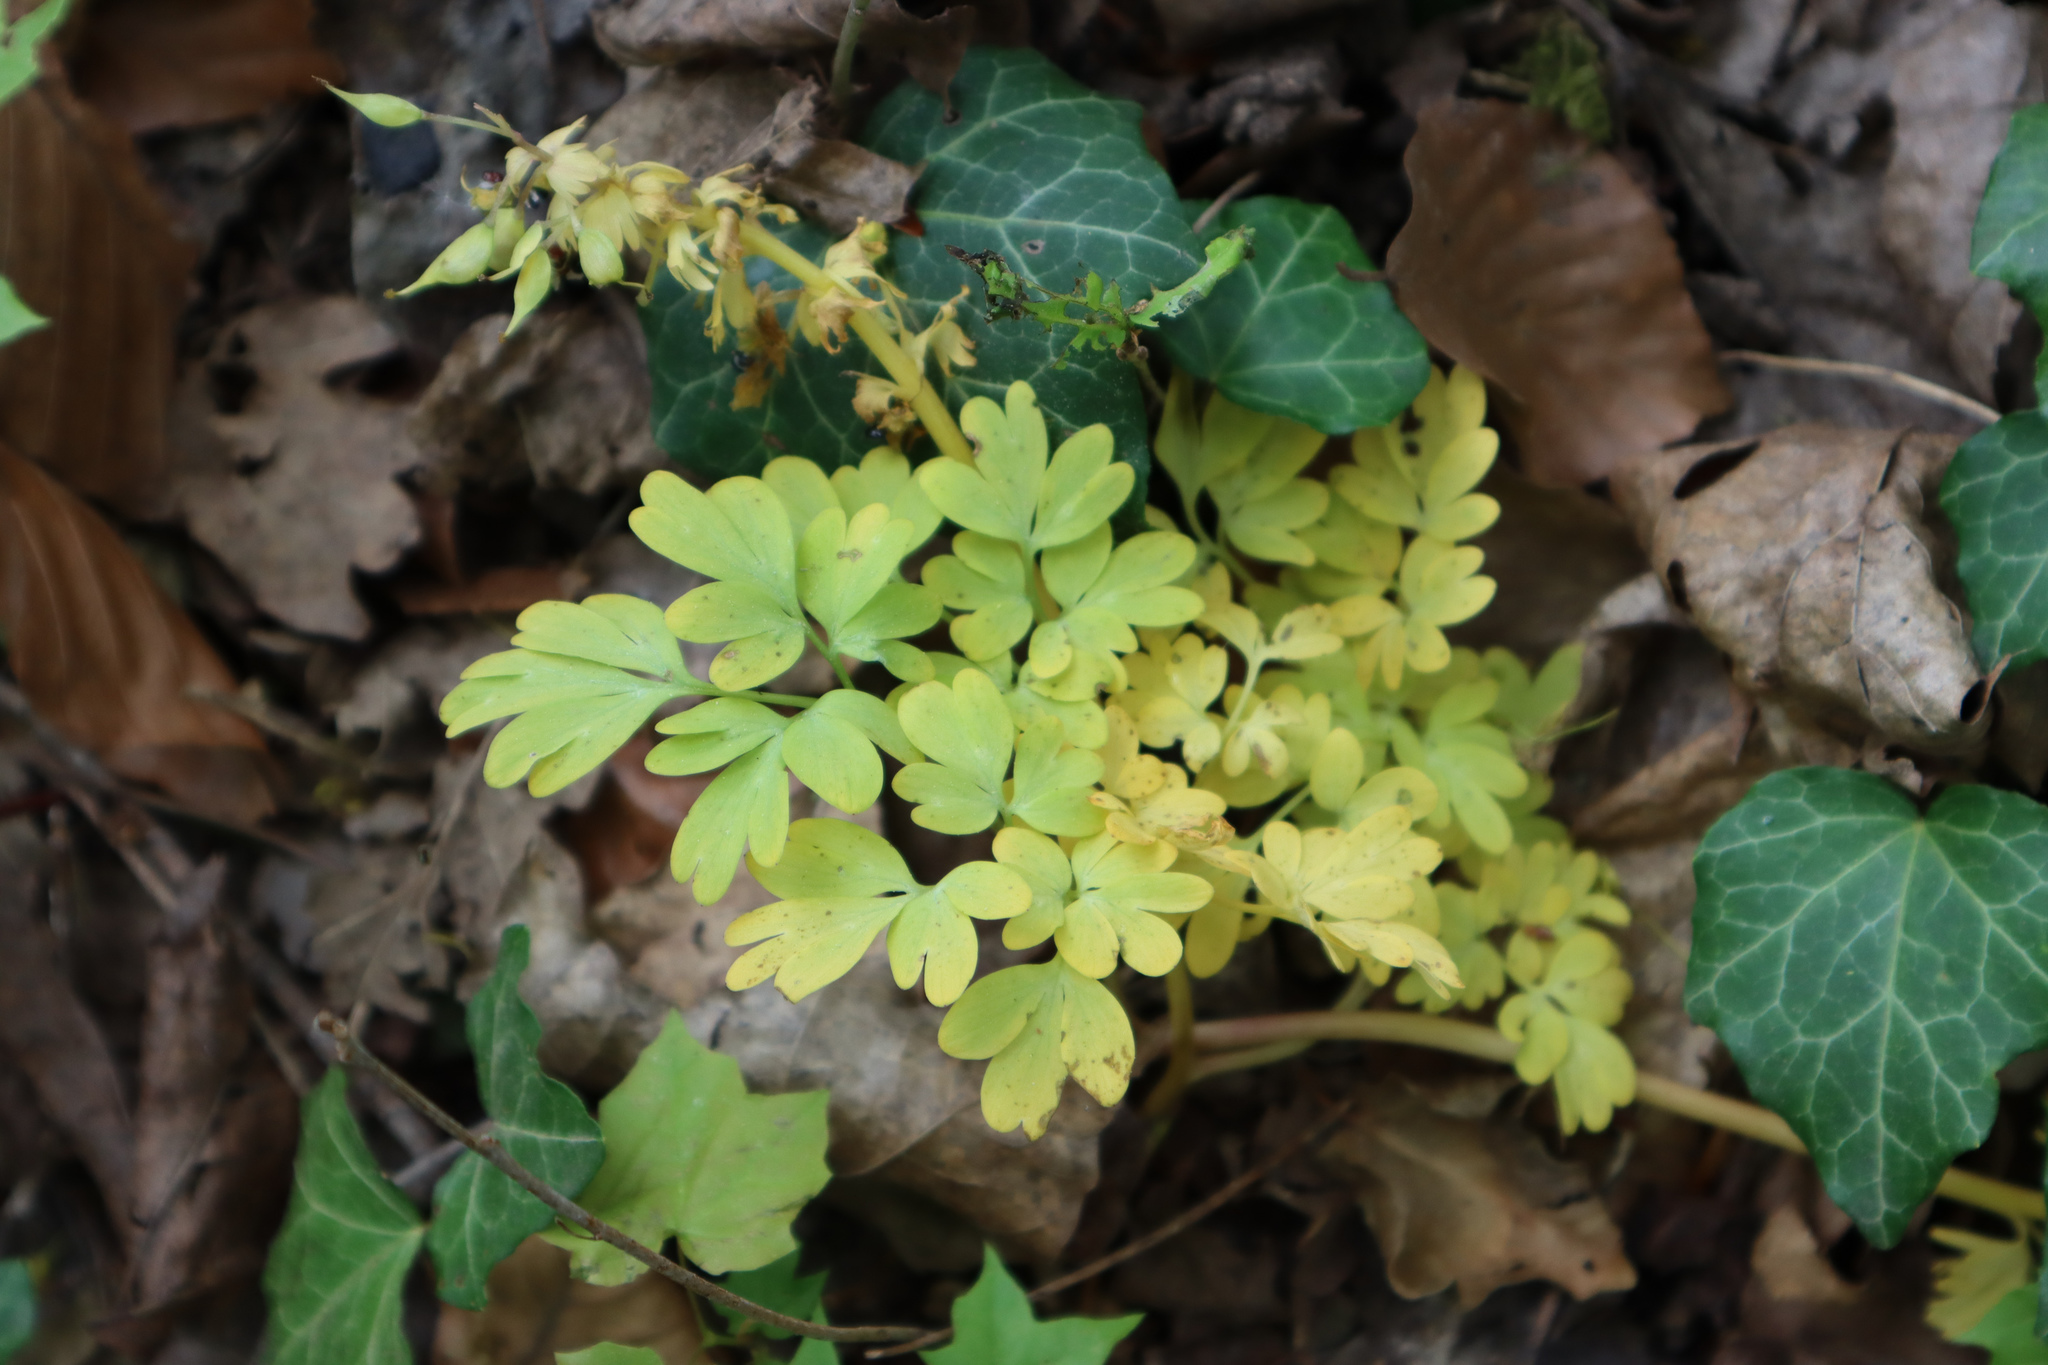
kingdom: Plantae
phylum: Tracheophyta
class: Magnoliopsida
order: Ranunculales
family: Papaveraceae
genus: Corydalis
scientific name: Corydalis solida
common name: Bird-in-a-bush
